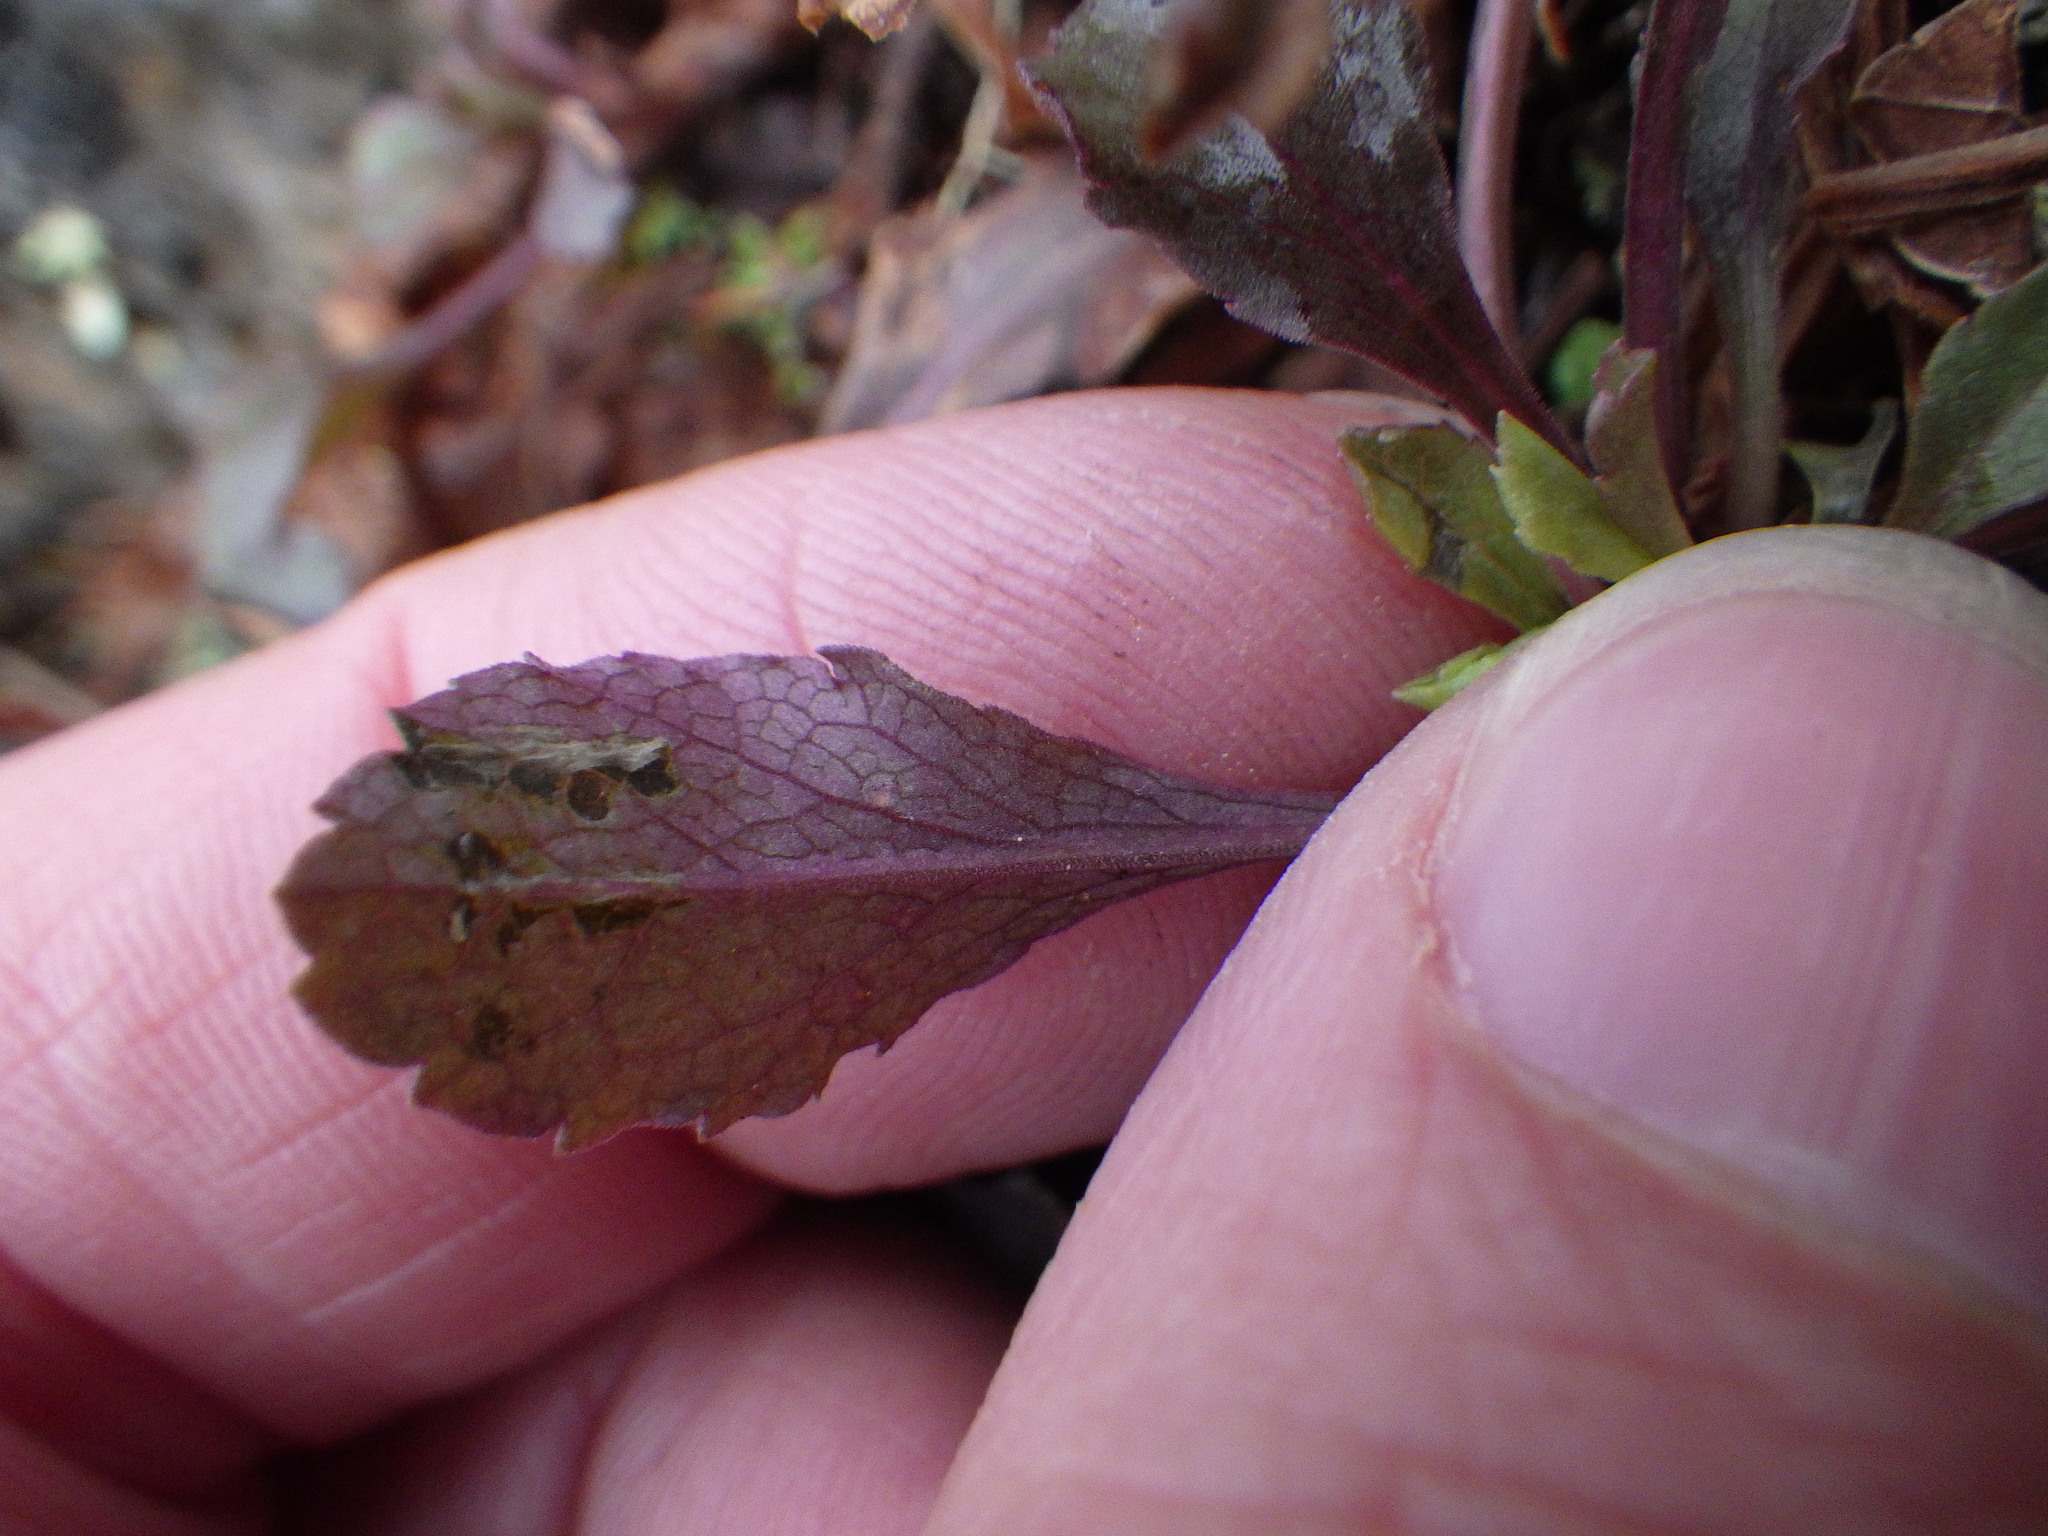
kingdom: Plantae
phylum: Tracheophyta
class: Magnoliopsida
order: Asterales
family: Asteraceae
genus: Leucanthemum
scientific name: Leucanthemum vulgare
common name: Oxeye daisy
